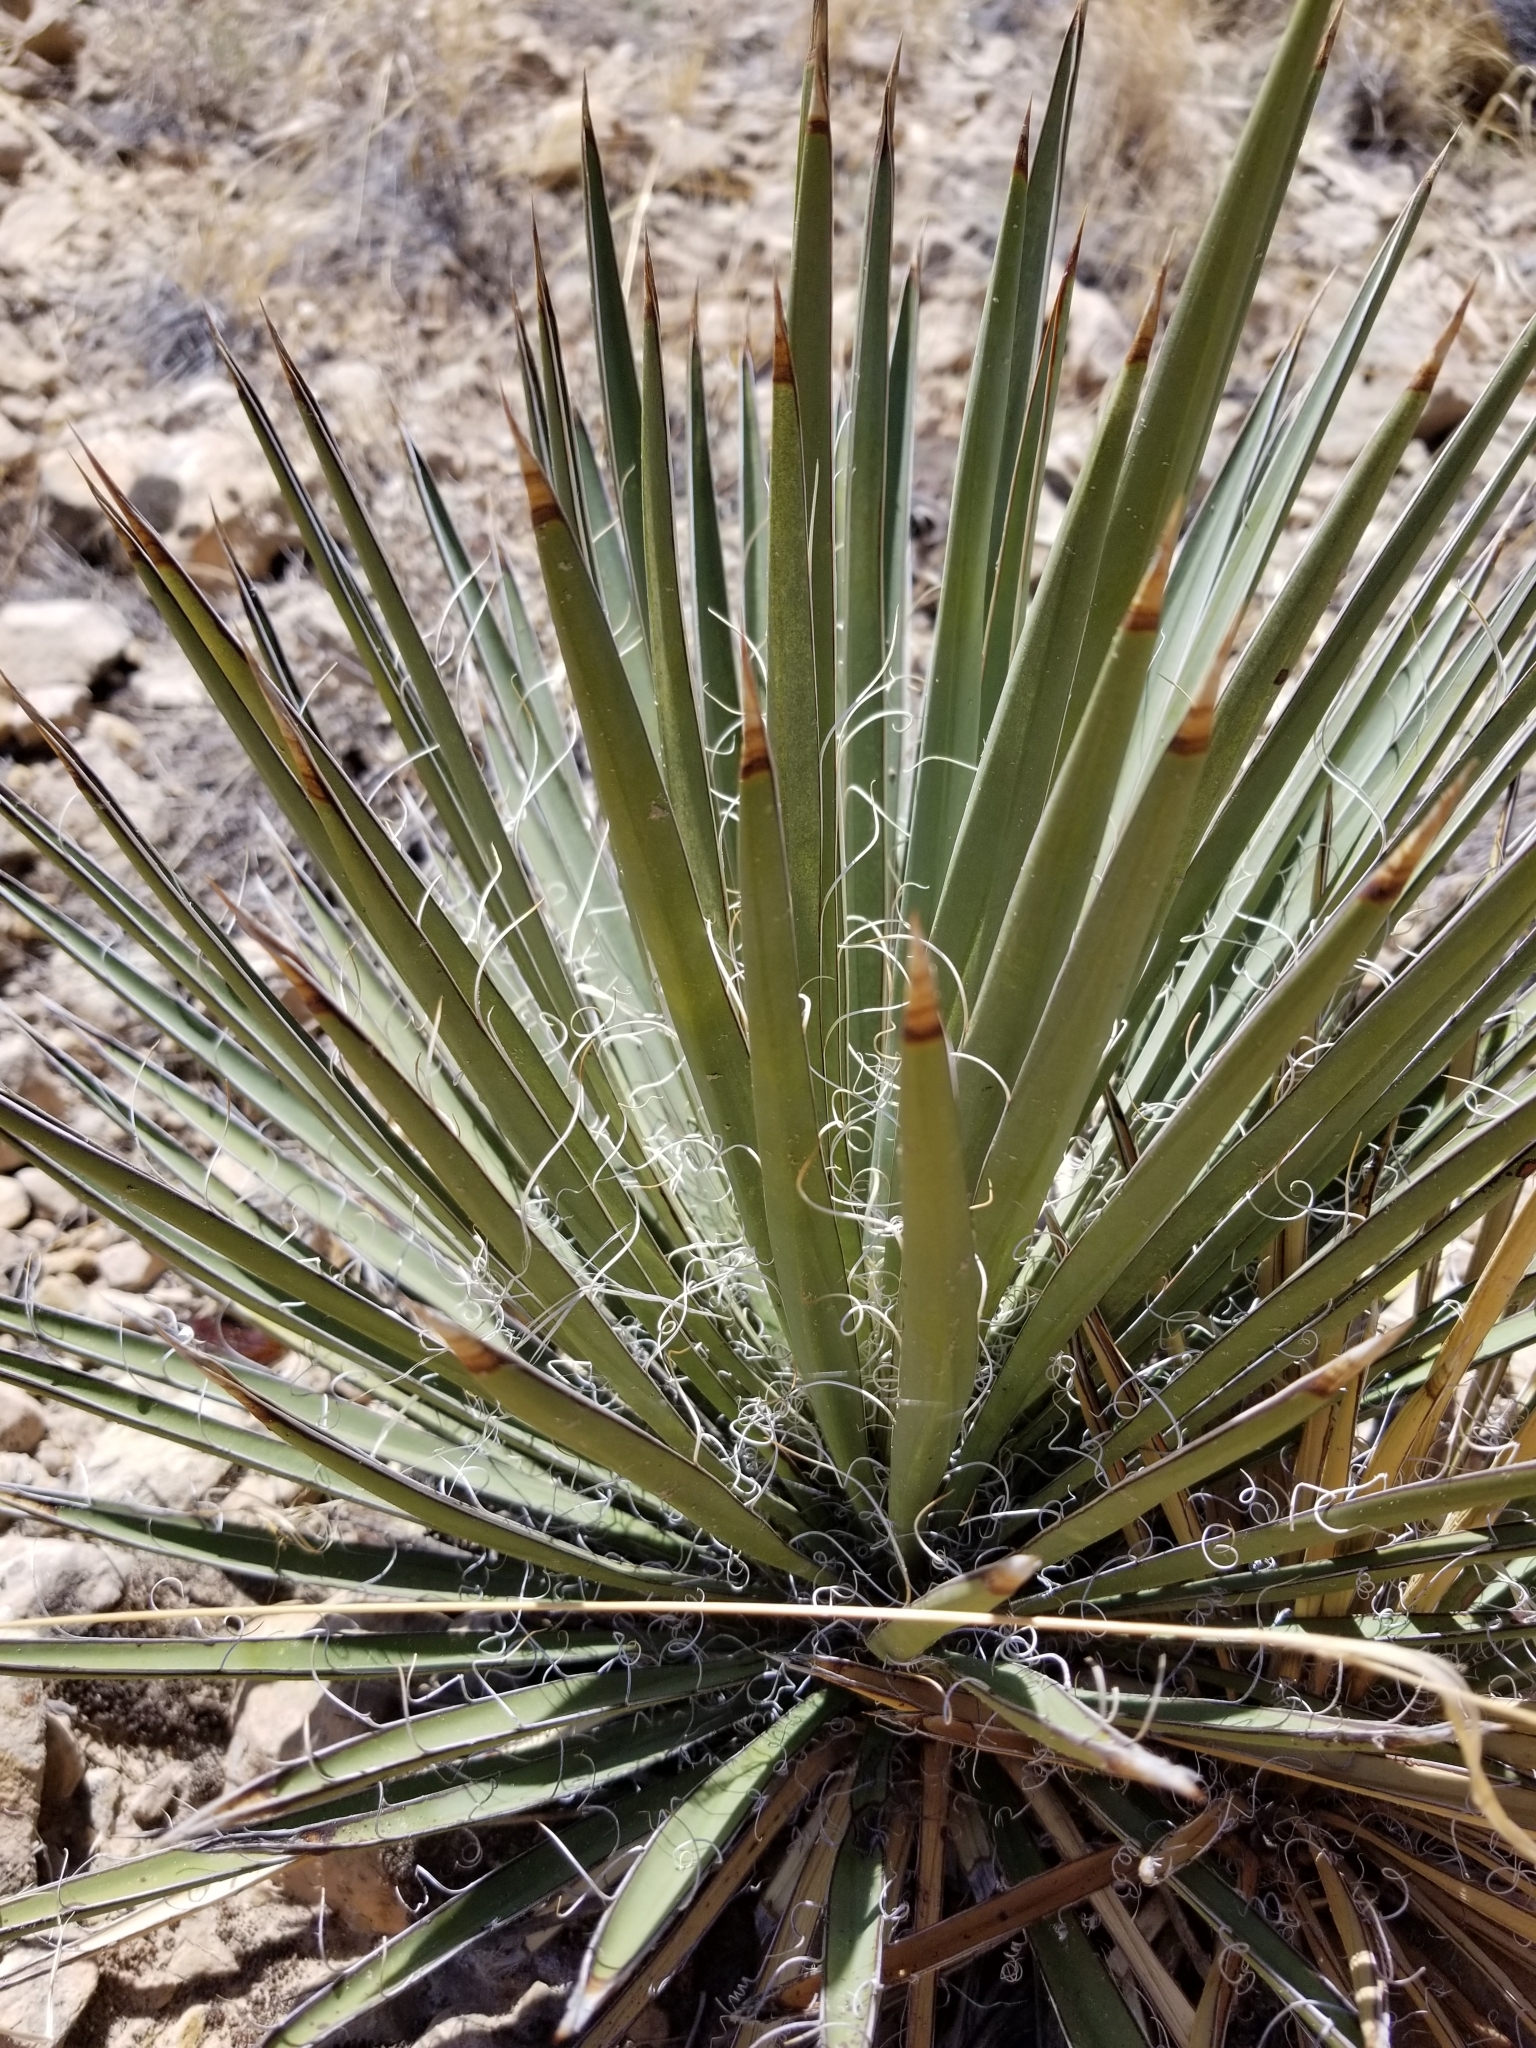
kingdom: Plantae
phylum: Tracheophyta
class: Liliopsida
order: Asparagales
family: Asparagaceae
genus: Yucca
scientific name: Yucca baccata
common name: Banana yucca
